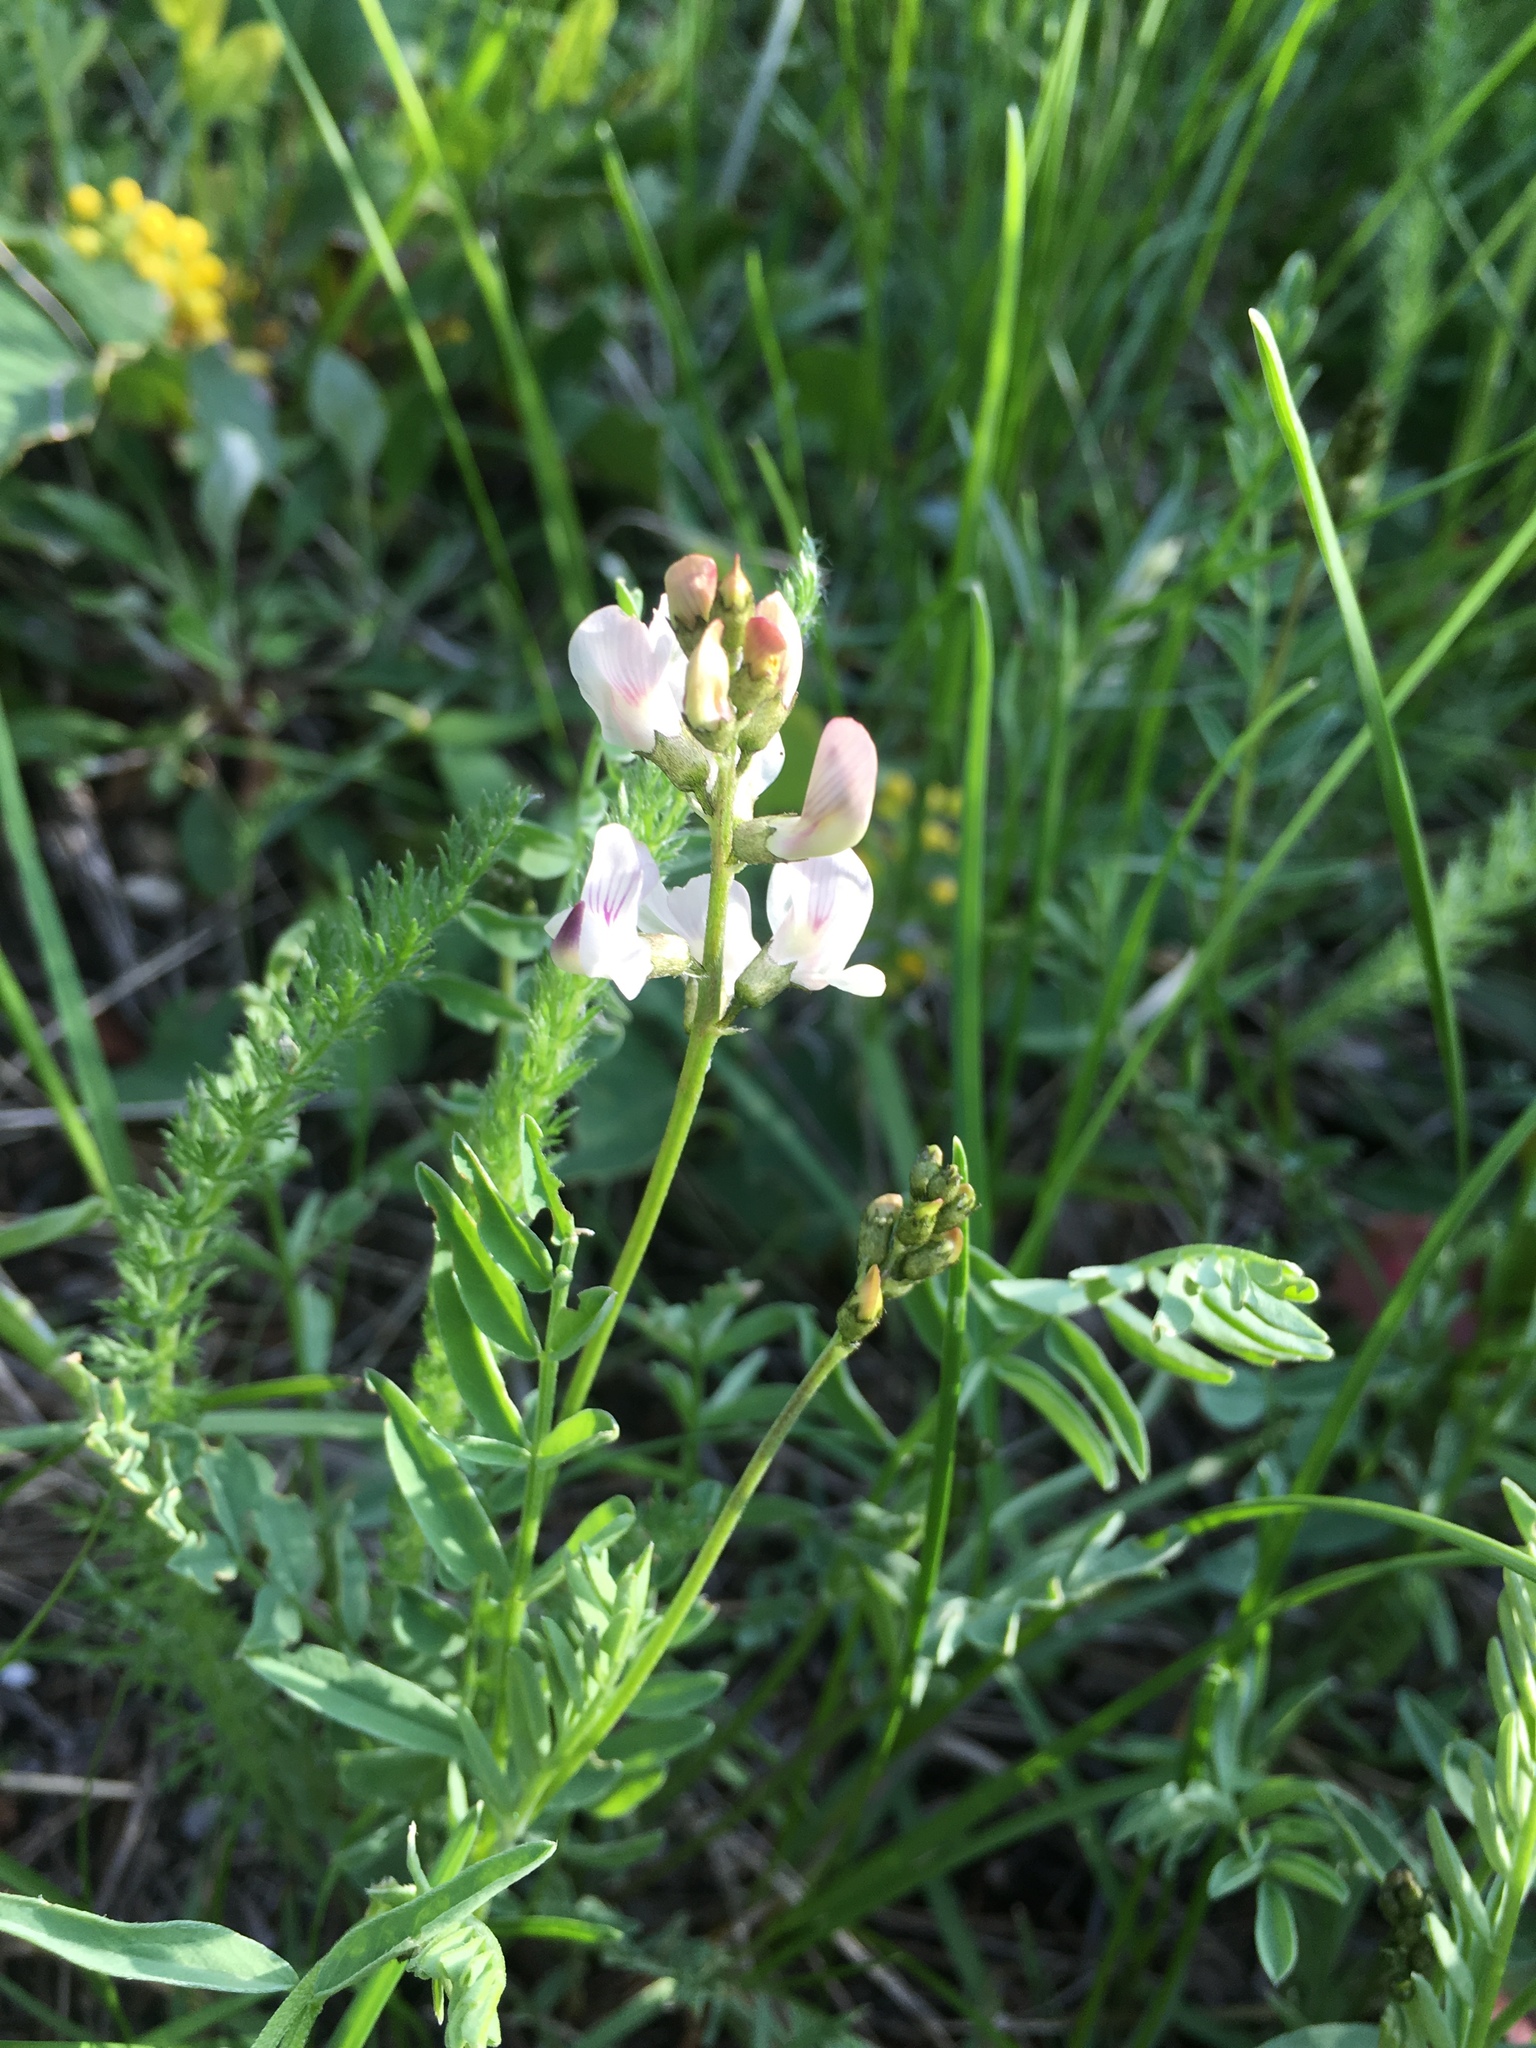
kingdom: Plantae
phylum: Tracheophyta
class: Magnoliopsida
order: Fabales
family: Fabaceae
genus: Astragalus
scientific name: Astragalus miser
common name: Timber milkvetch
